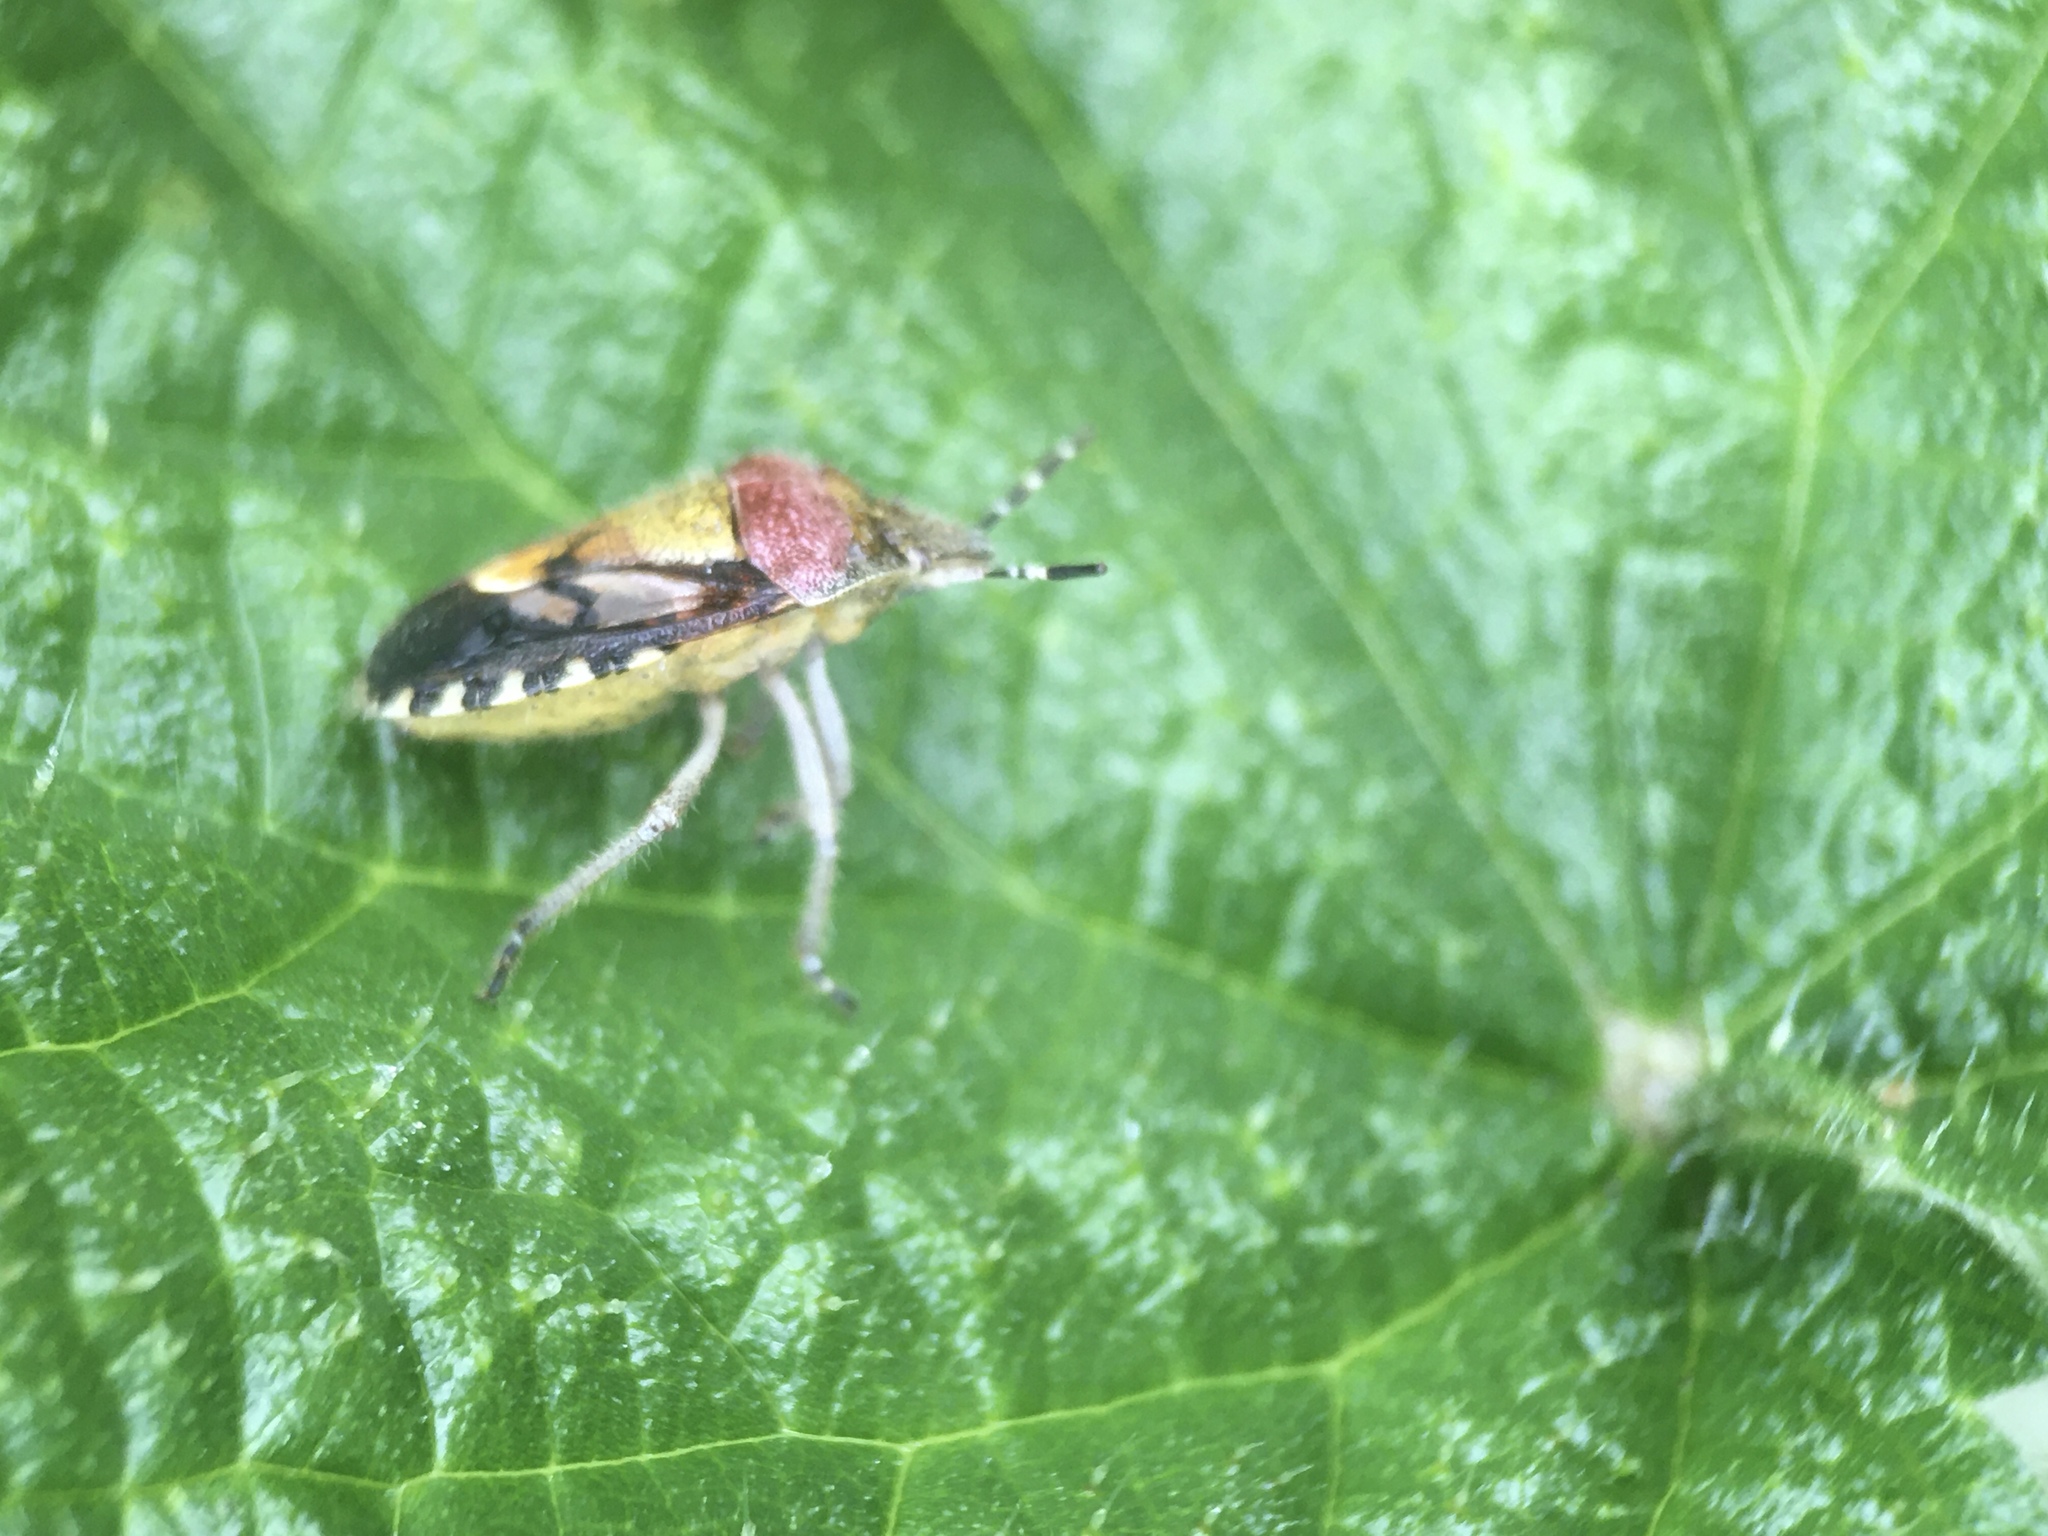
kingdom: Animalia
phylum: Arthropoda
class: Insecta
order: Hemiptera
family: Pentatomidae
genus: Dolycoris
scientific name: Dolycoris baccarum
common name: Sloe bug
